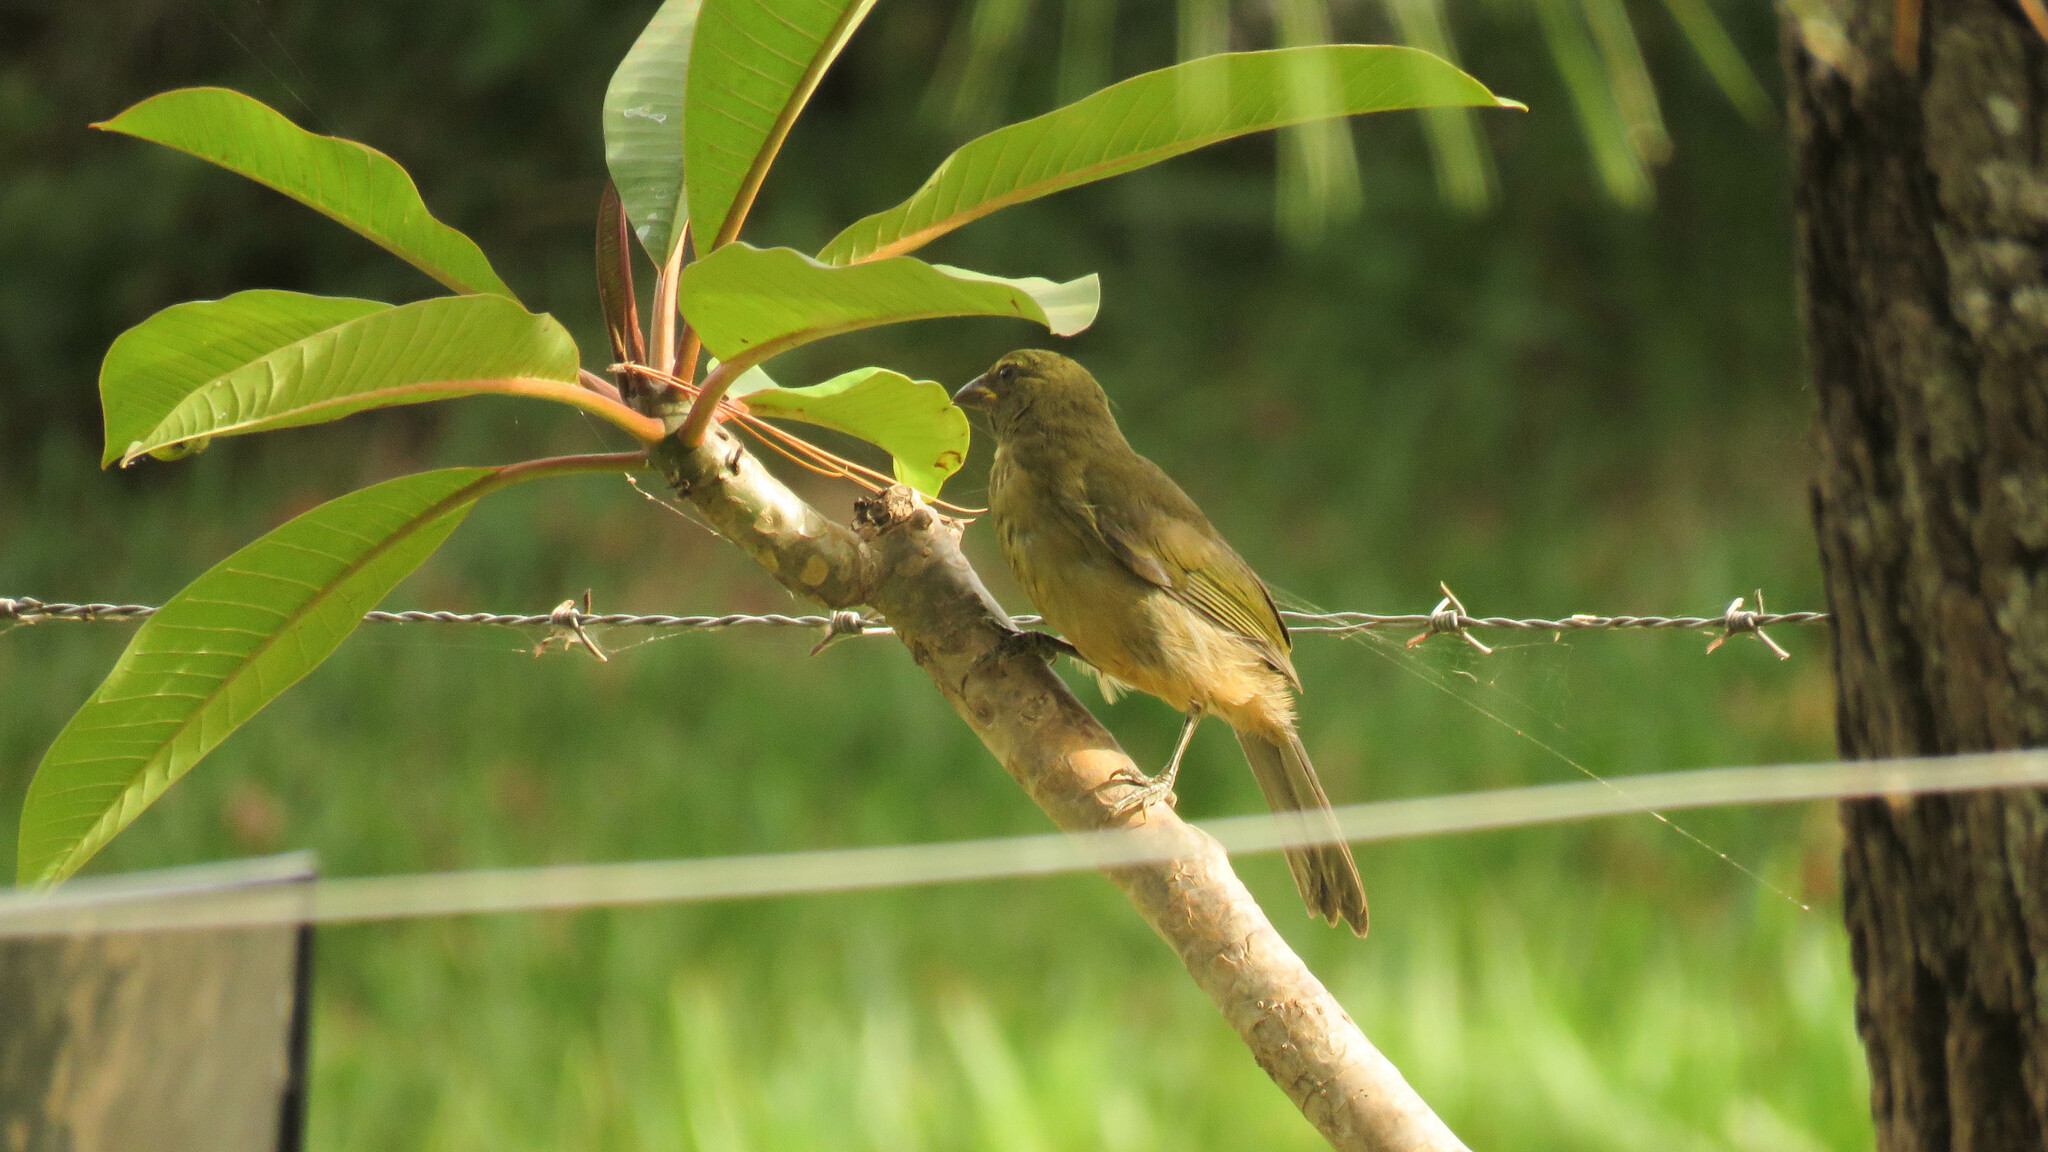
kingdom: Animalia
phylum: Chordata
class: Aves
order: Passeriformes
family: Thraupidae
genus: Saltator
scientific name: Saltator coerulescens
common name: Grayish saltator
